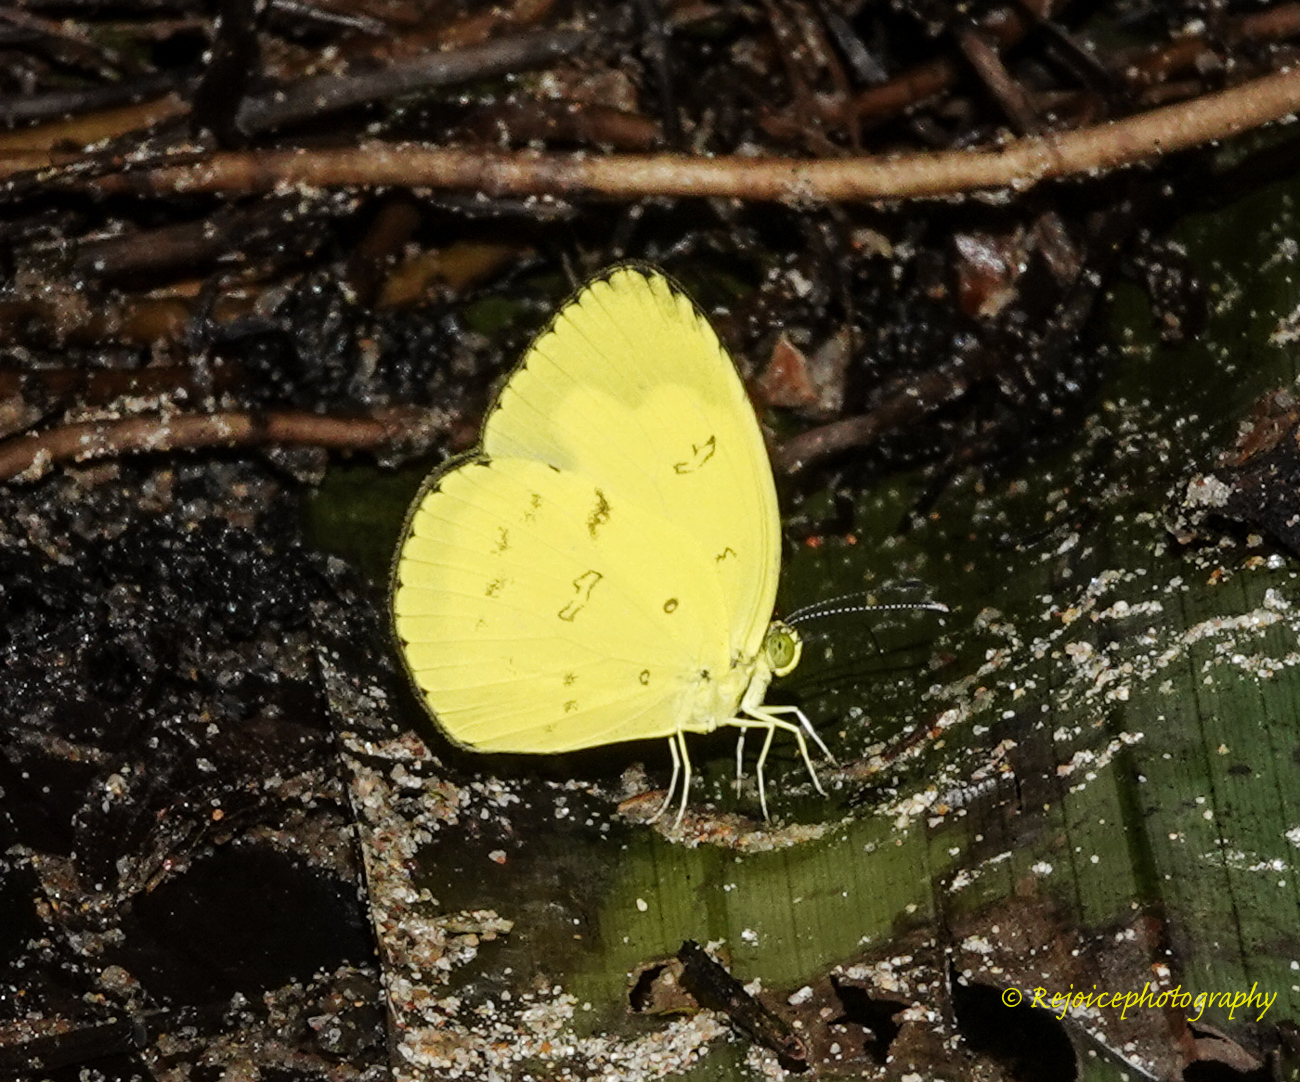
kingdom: Animalia
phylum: Arthropoda
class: Insecta
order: Lepidoptera
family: Pieridae
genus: Eurema
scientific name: Eurema andersoni
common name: One-spot yellow grass
